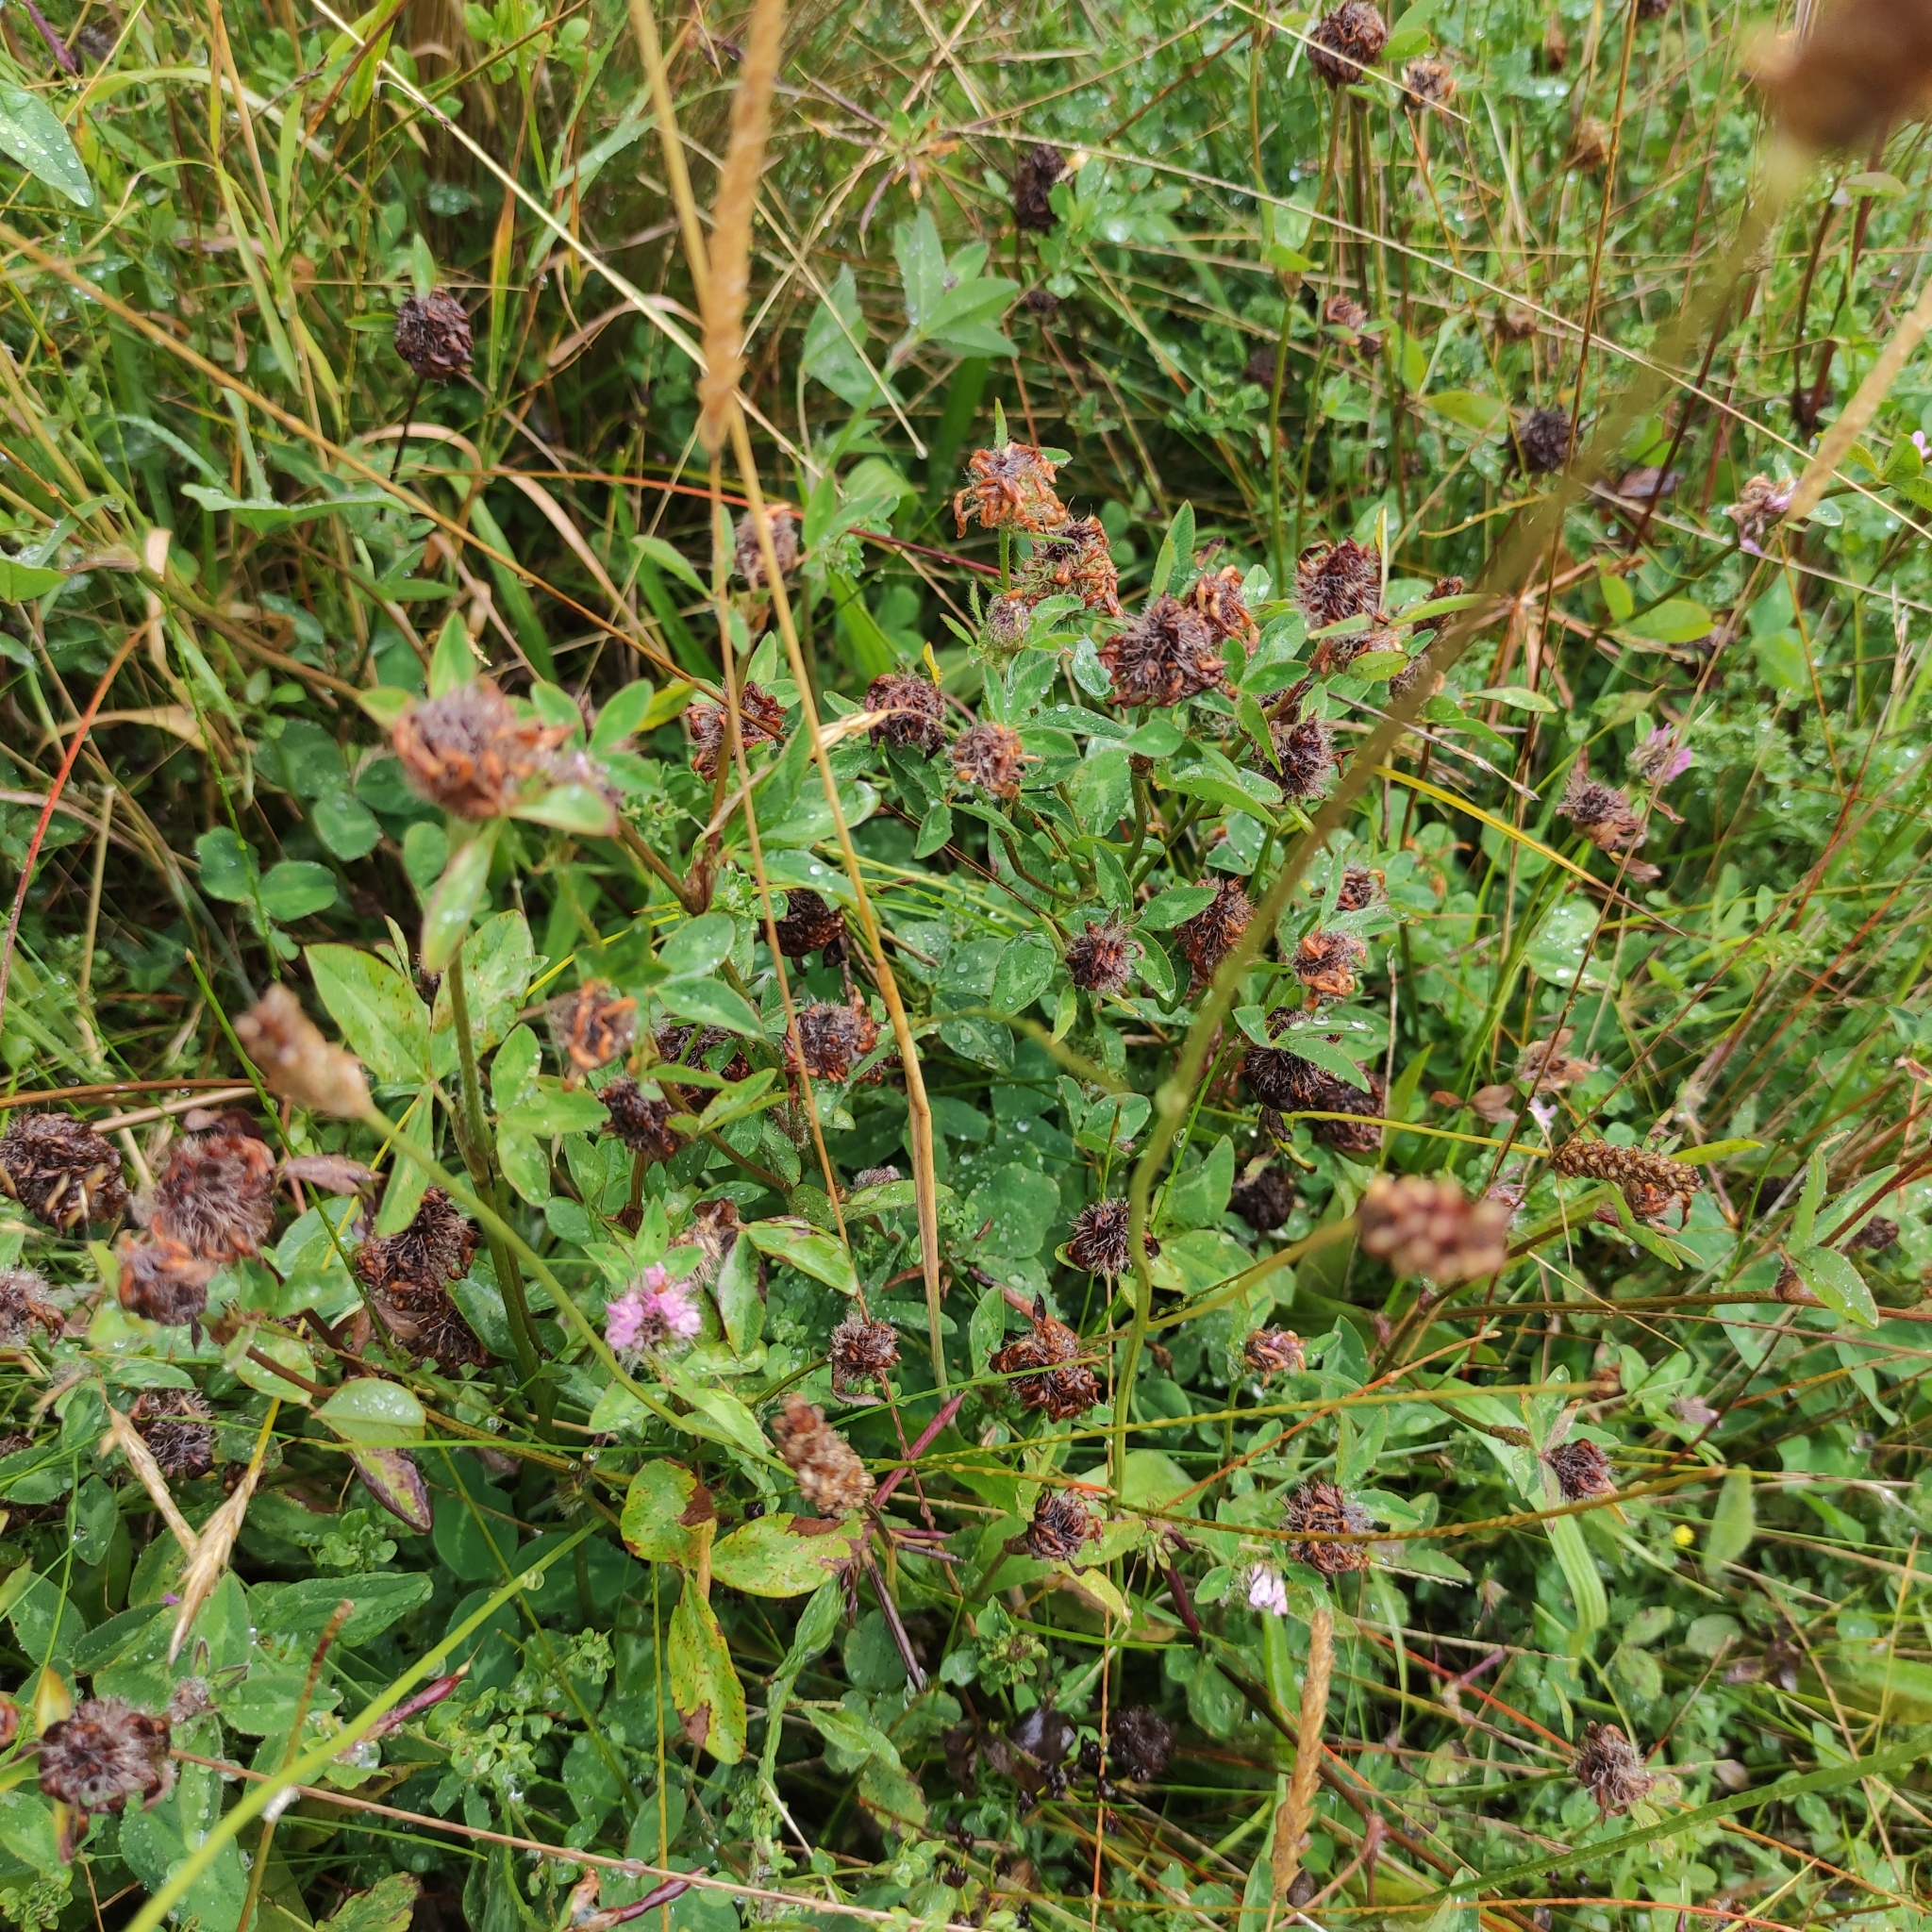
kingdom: Plantae
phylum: Tracheophyta
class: Magnoliopsida
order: Fabales
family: Fabaceae
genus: Trifolium
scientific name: Trifolium pratense
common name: Red clover
